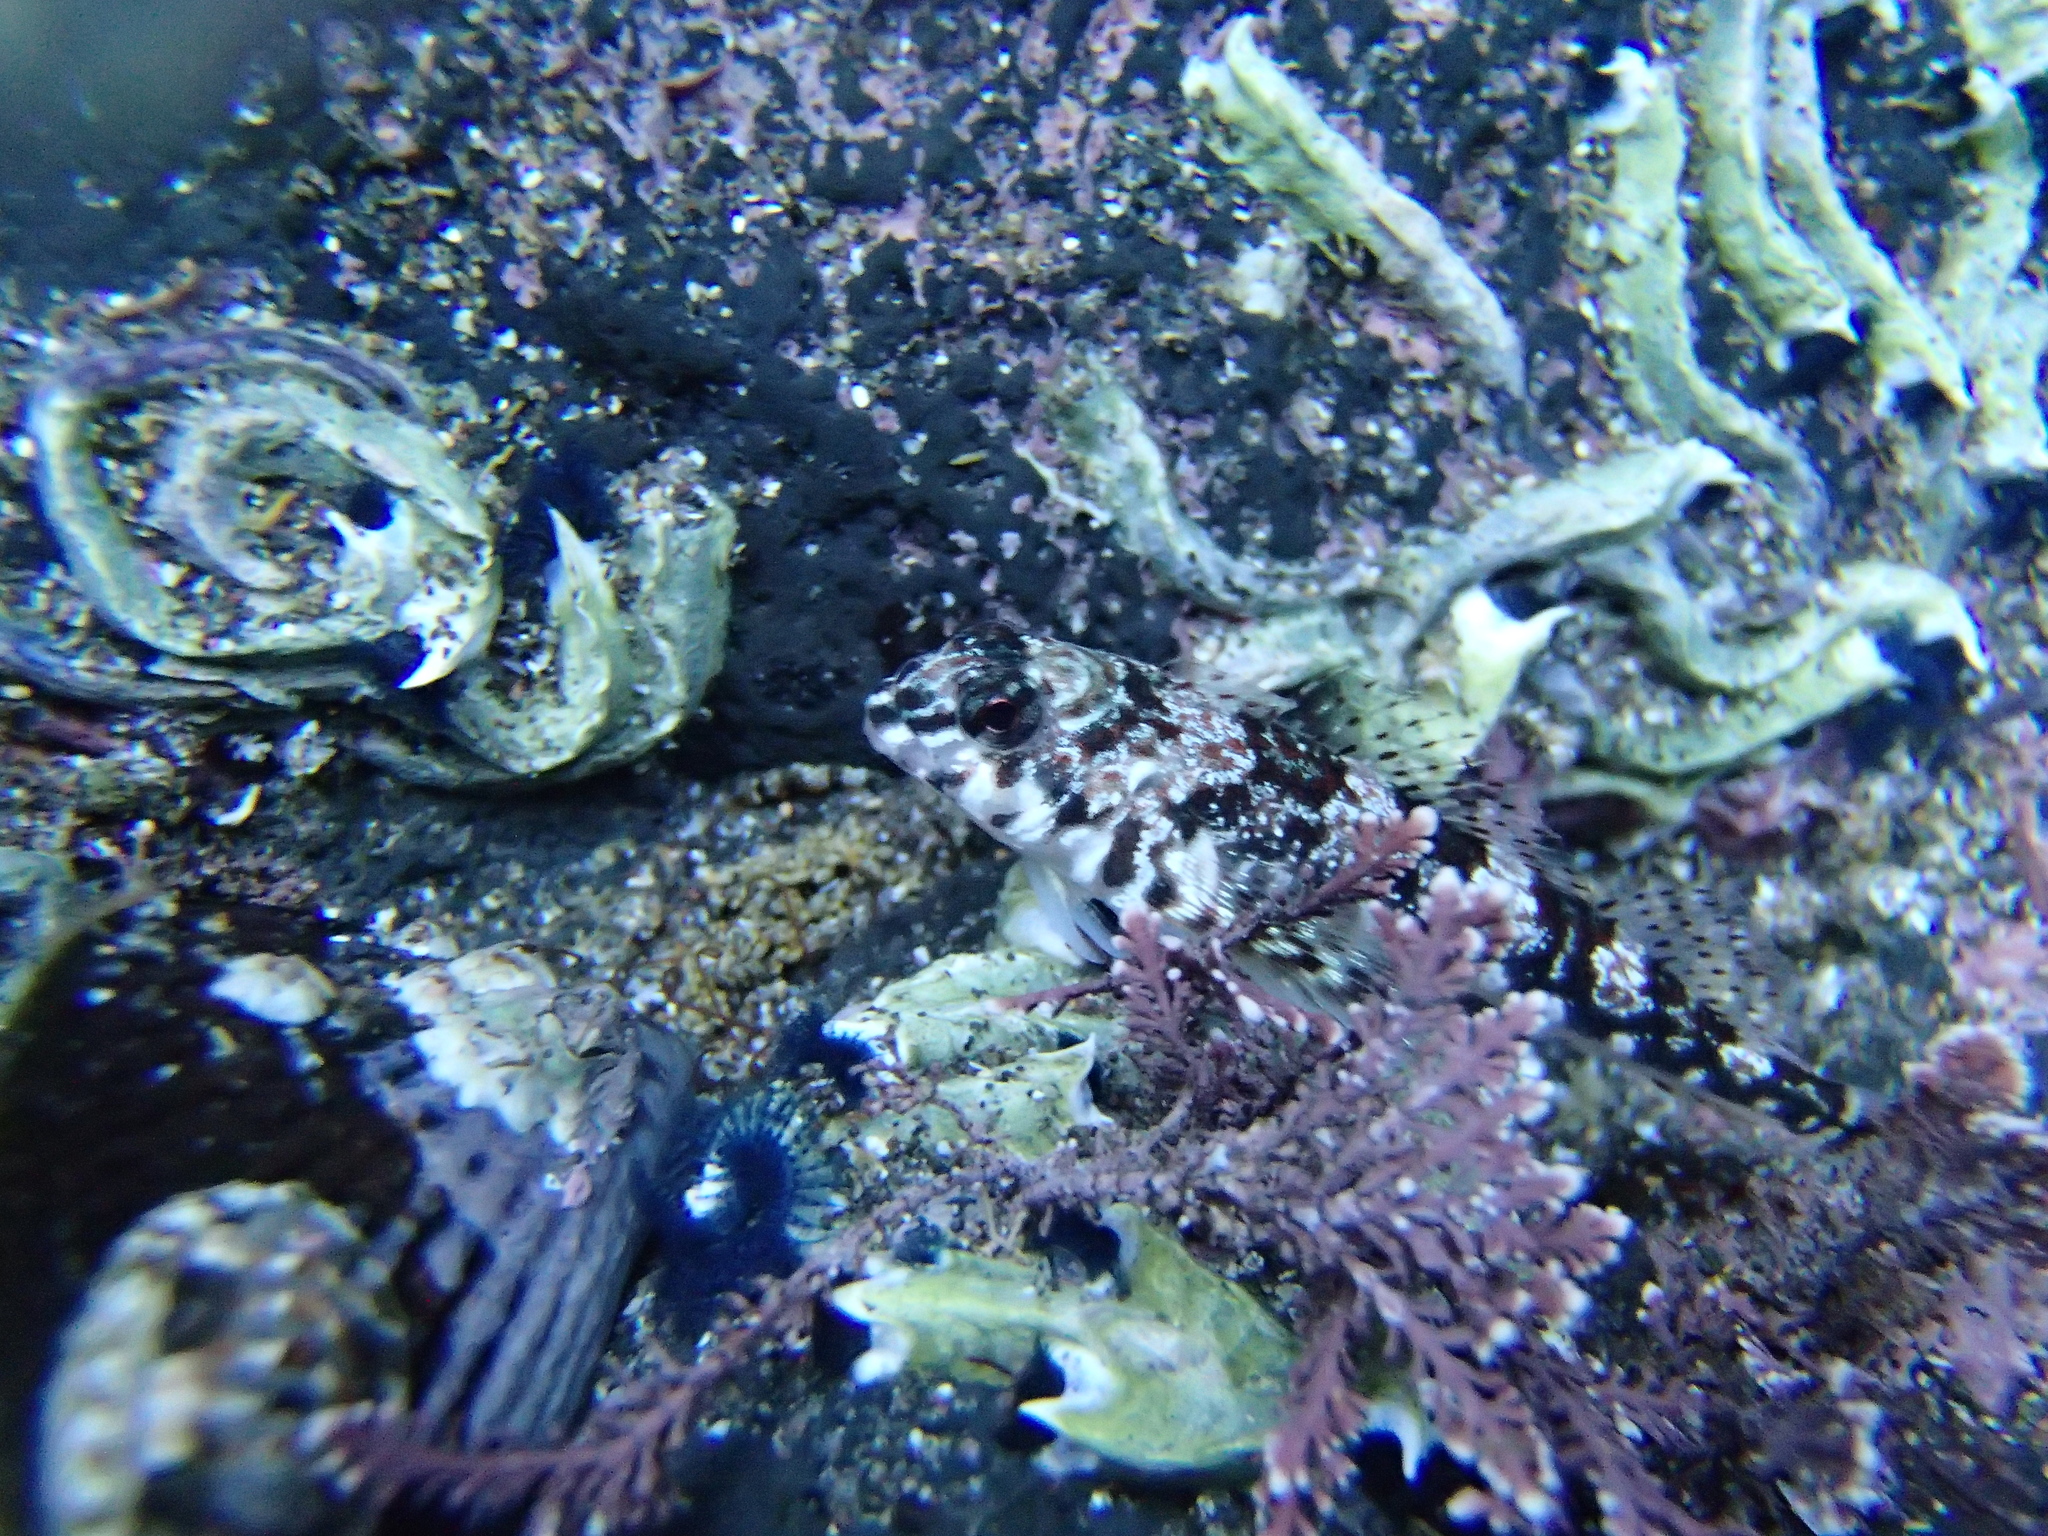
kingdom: Animalia
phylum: Chordata
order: Perciformes
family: Tripterygiidae
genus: Bellapiscis
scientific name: Bellapiscis lesleyae
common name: Mottled twister
